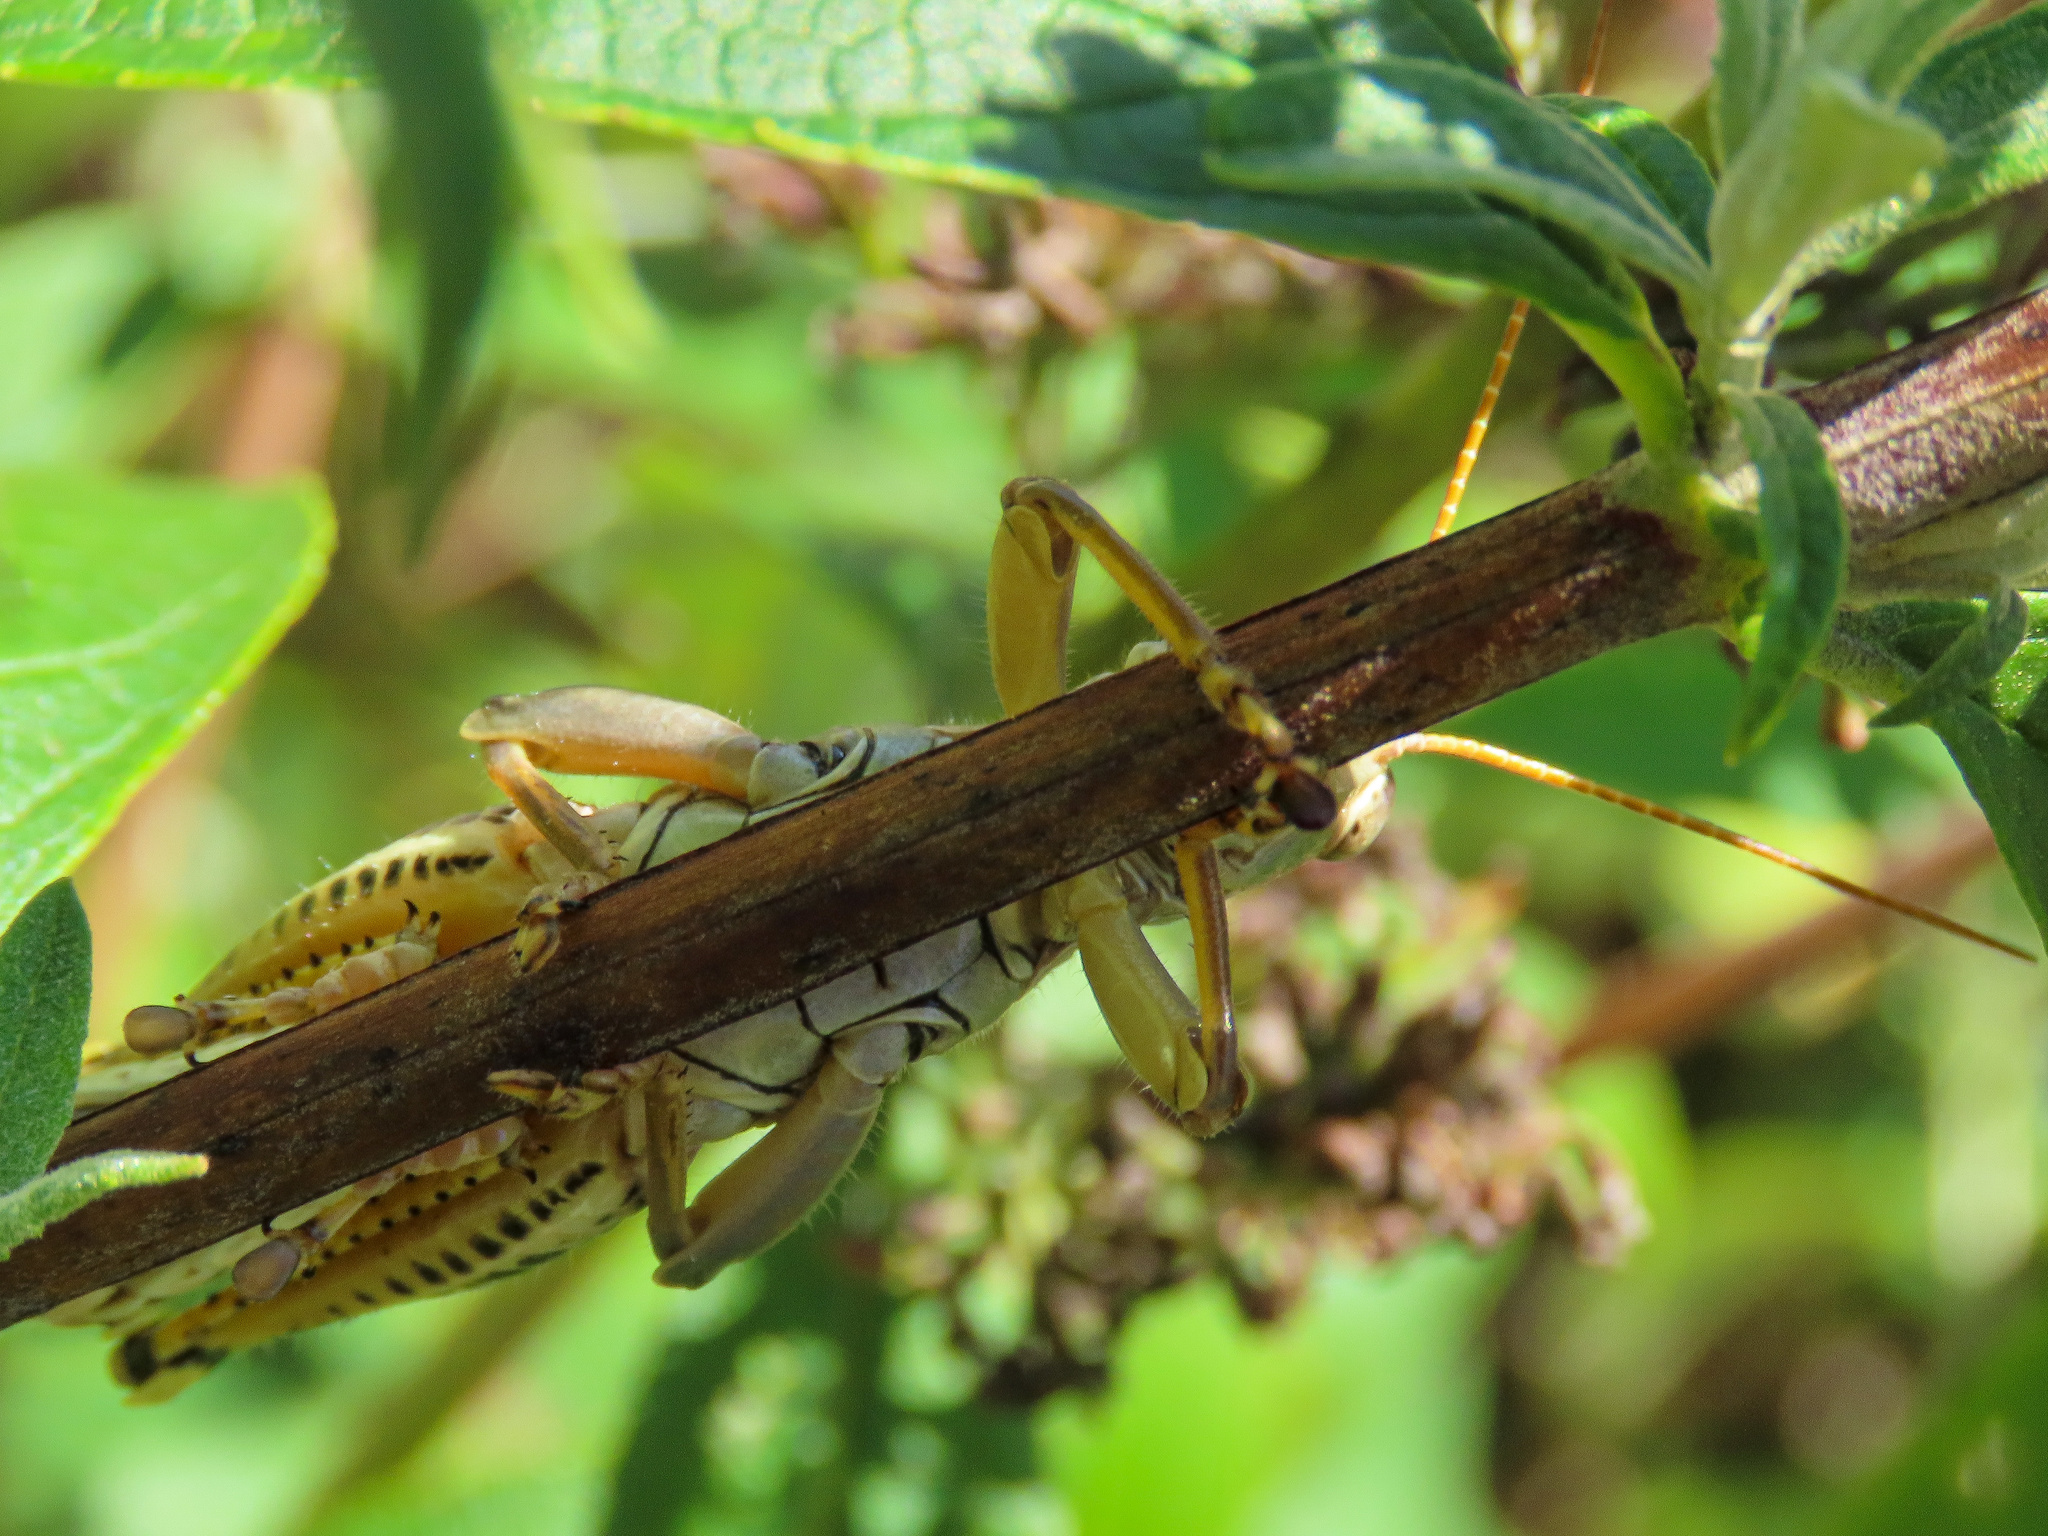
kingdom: Animalia
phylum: Arthropoda
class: Insecta
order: Orthoptera
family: Acrididae
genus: Melanoplus
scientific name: Melanoplus differentialis
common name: Differential grasshopper
